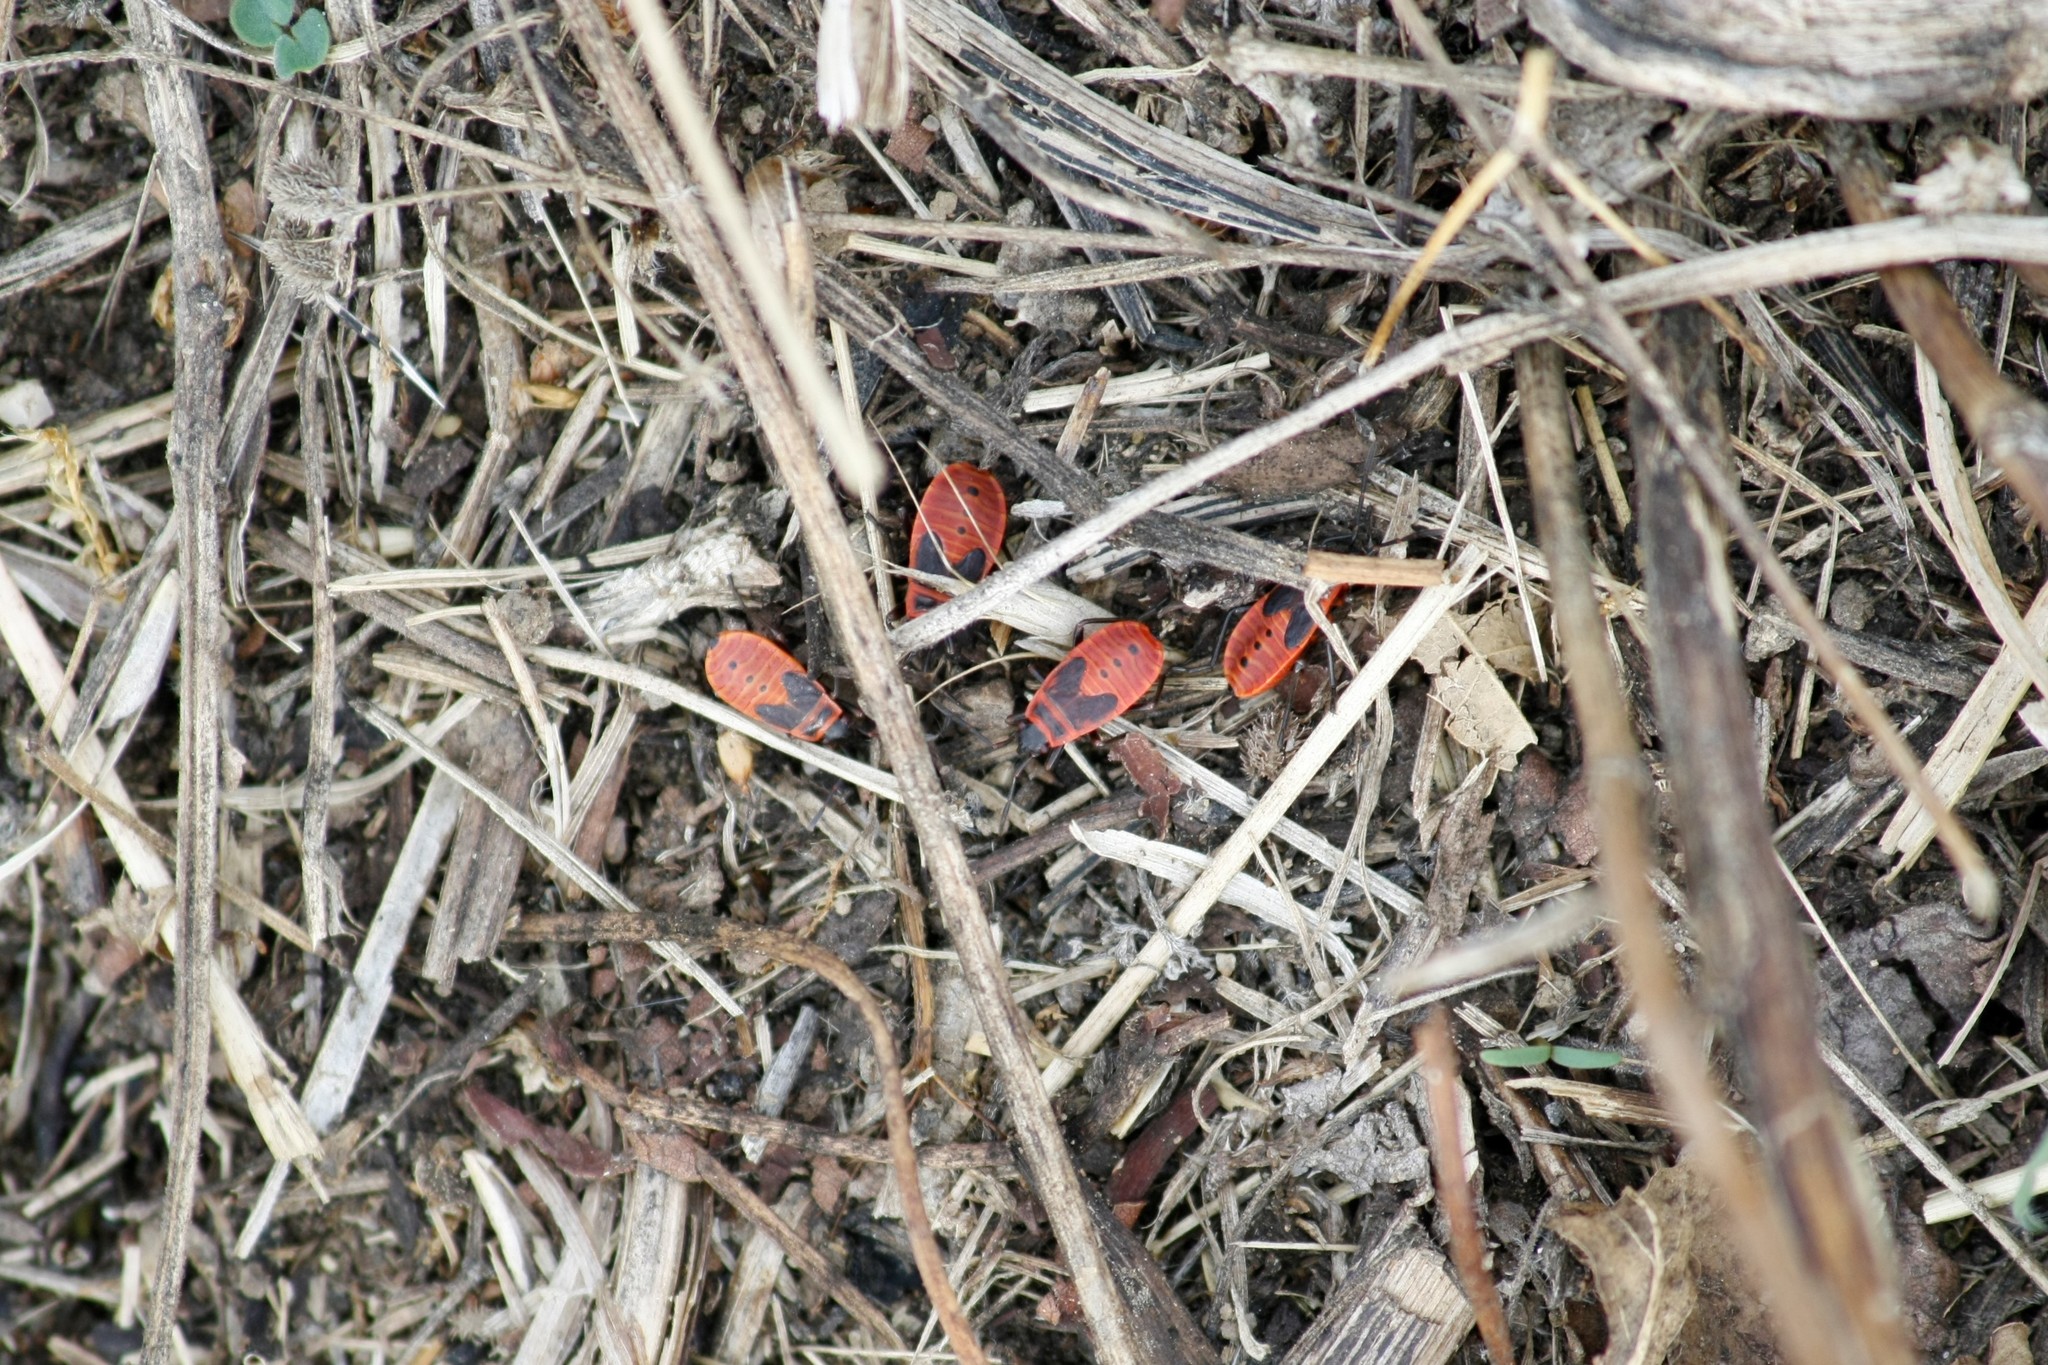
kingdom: Animalia
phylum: Arthropoda
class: Insecta
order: Hemiptera
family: Pyrrhocoridae
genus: Pyrrhocoris
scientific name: Pyrrhocoris apterus
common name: Firebug
